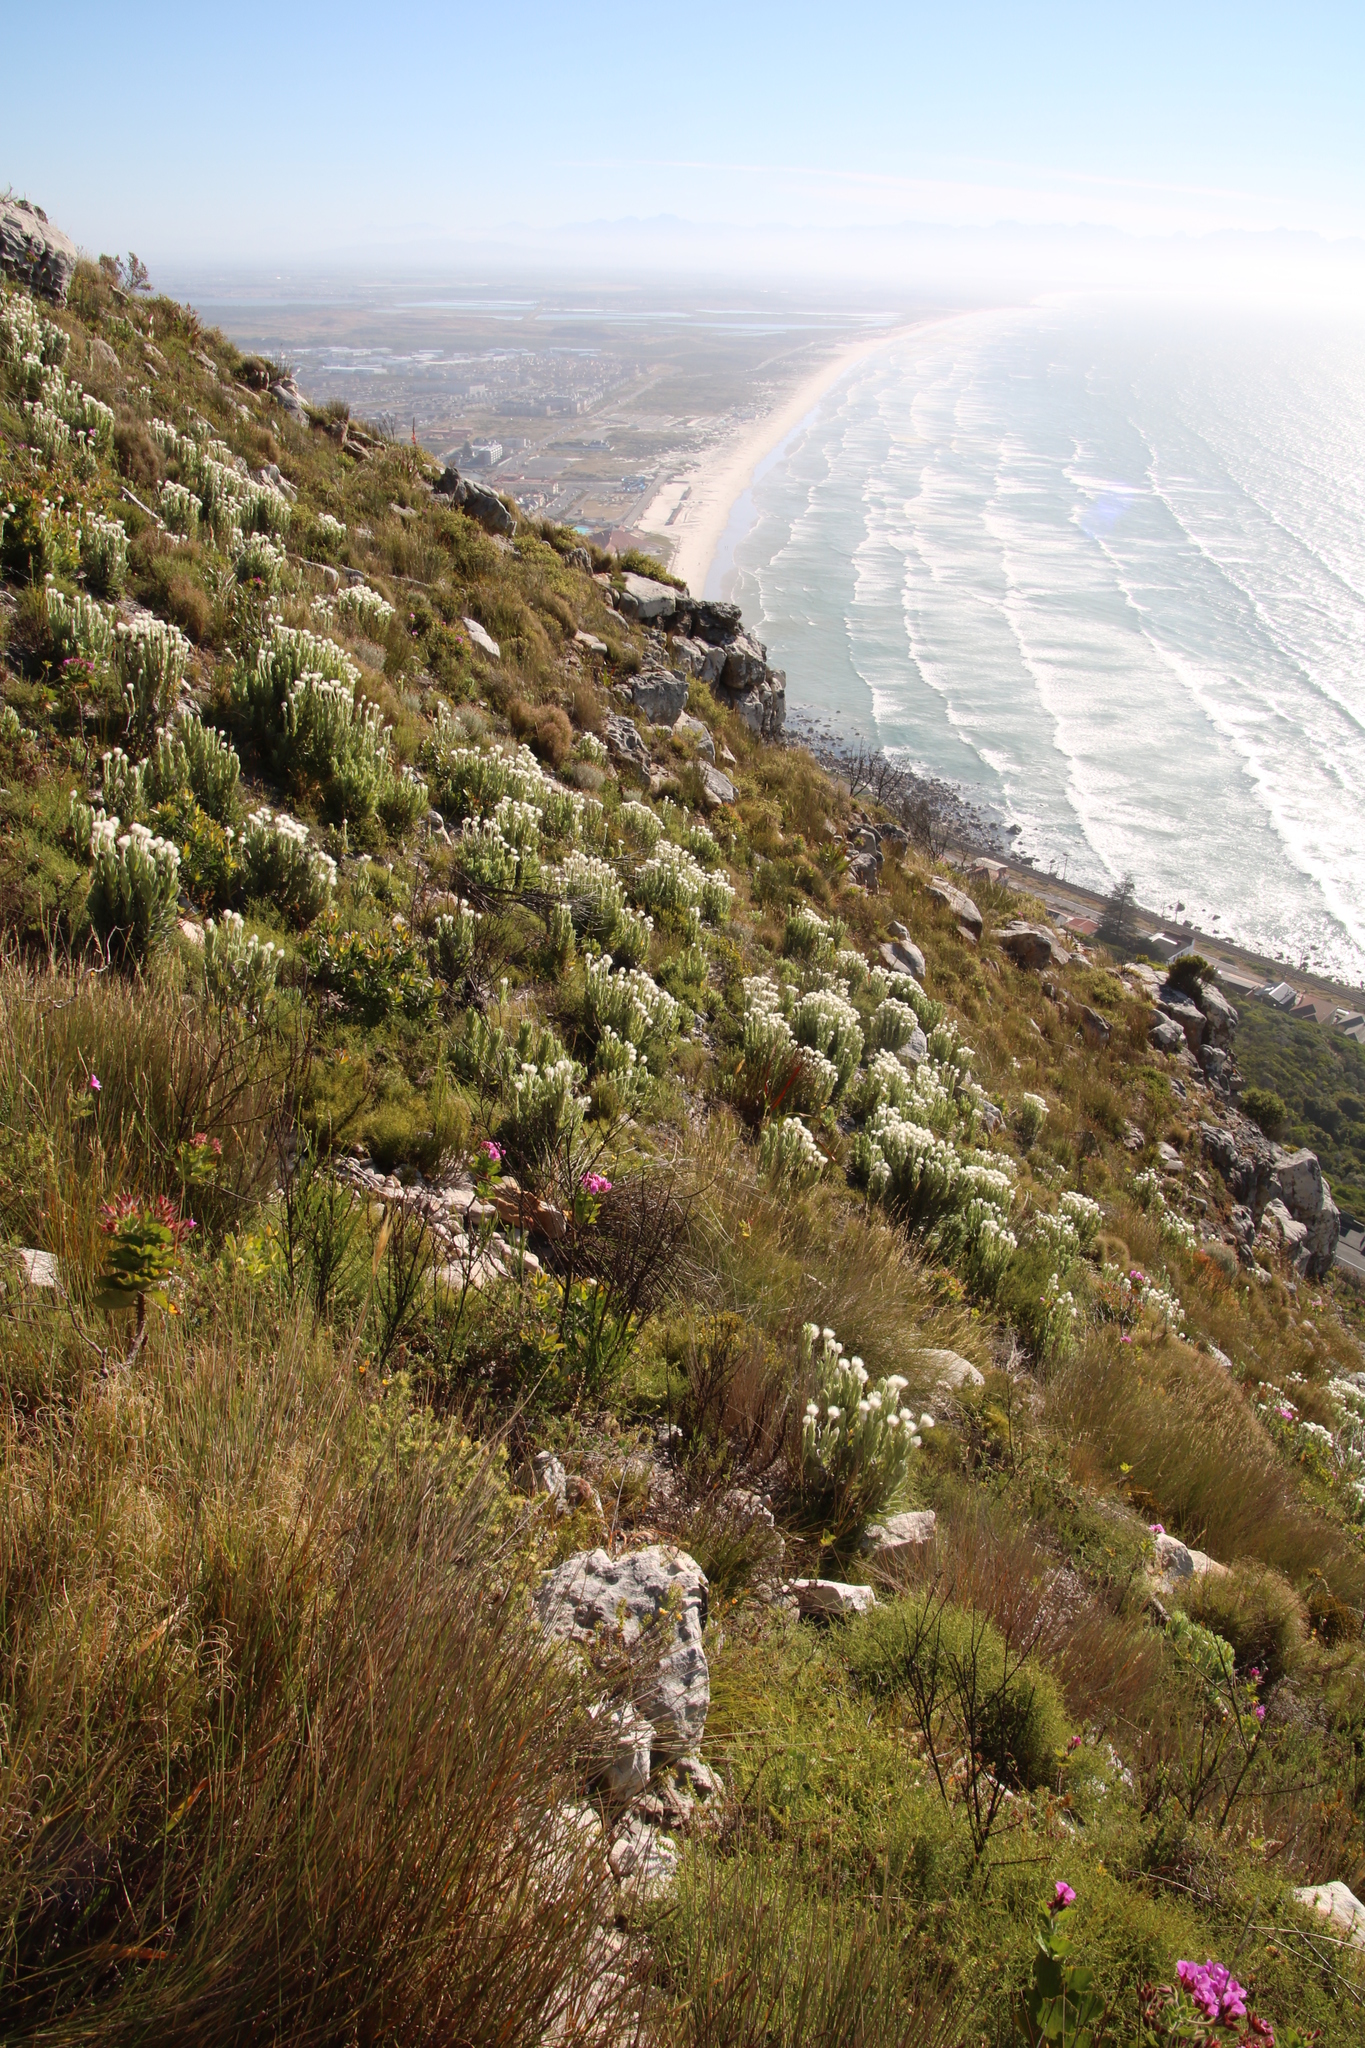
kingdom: Plantae
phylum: Tracheophyta
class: Magnoliopsida
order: Asterales
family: Asteraceae
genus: Syncarpha
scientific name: Syncarpha vestita
